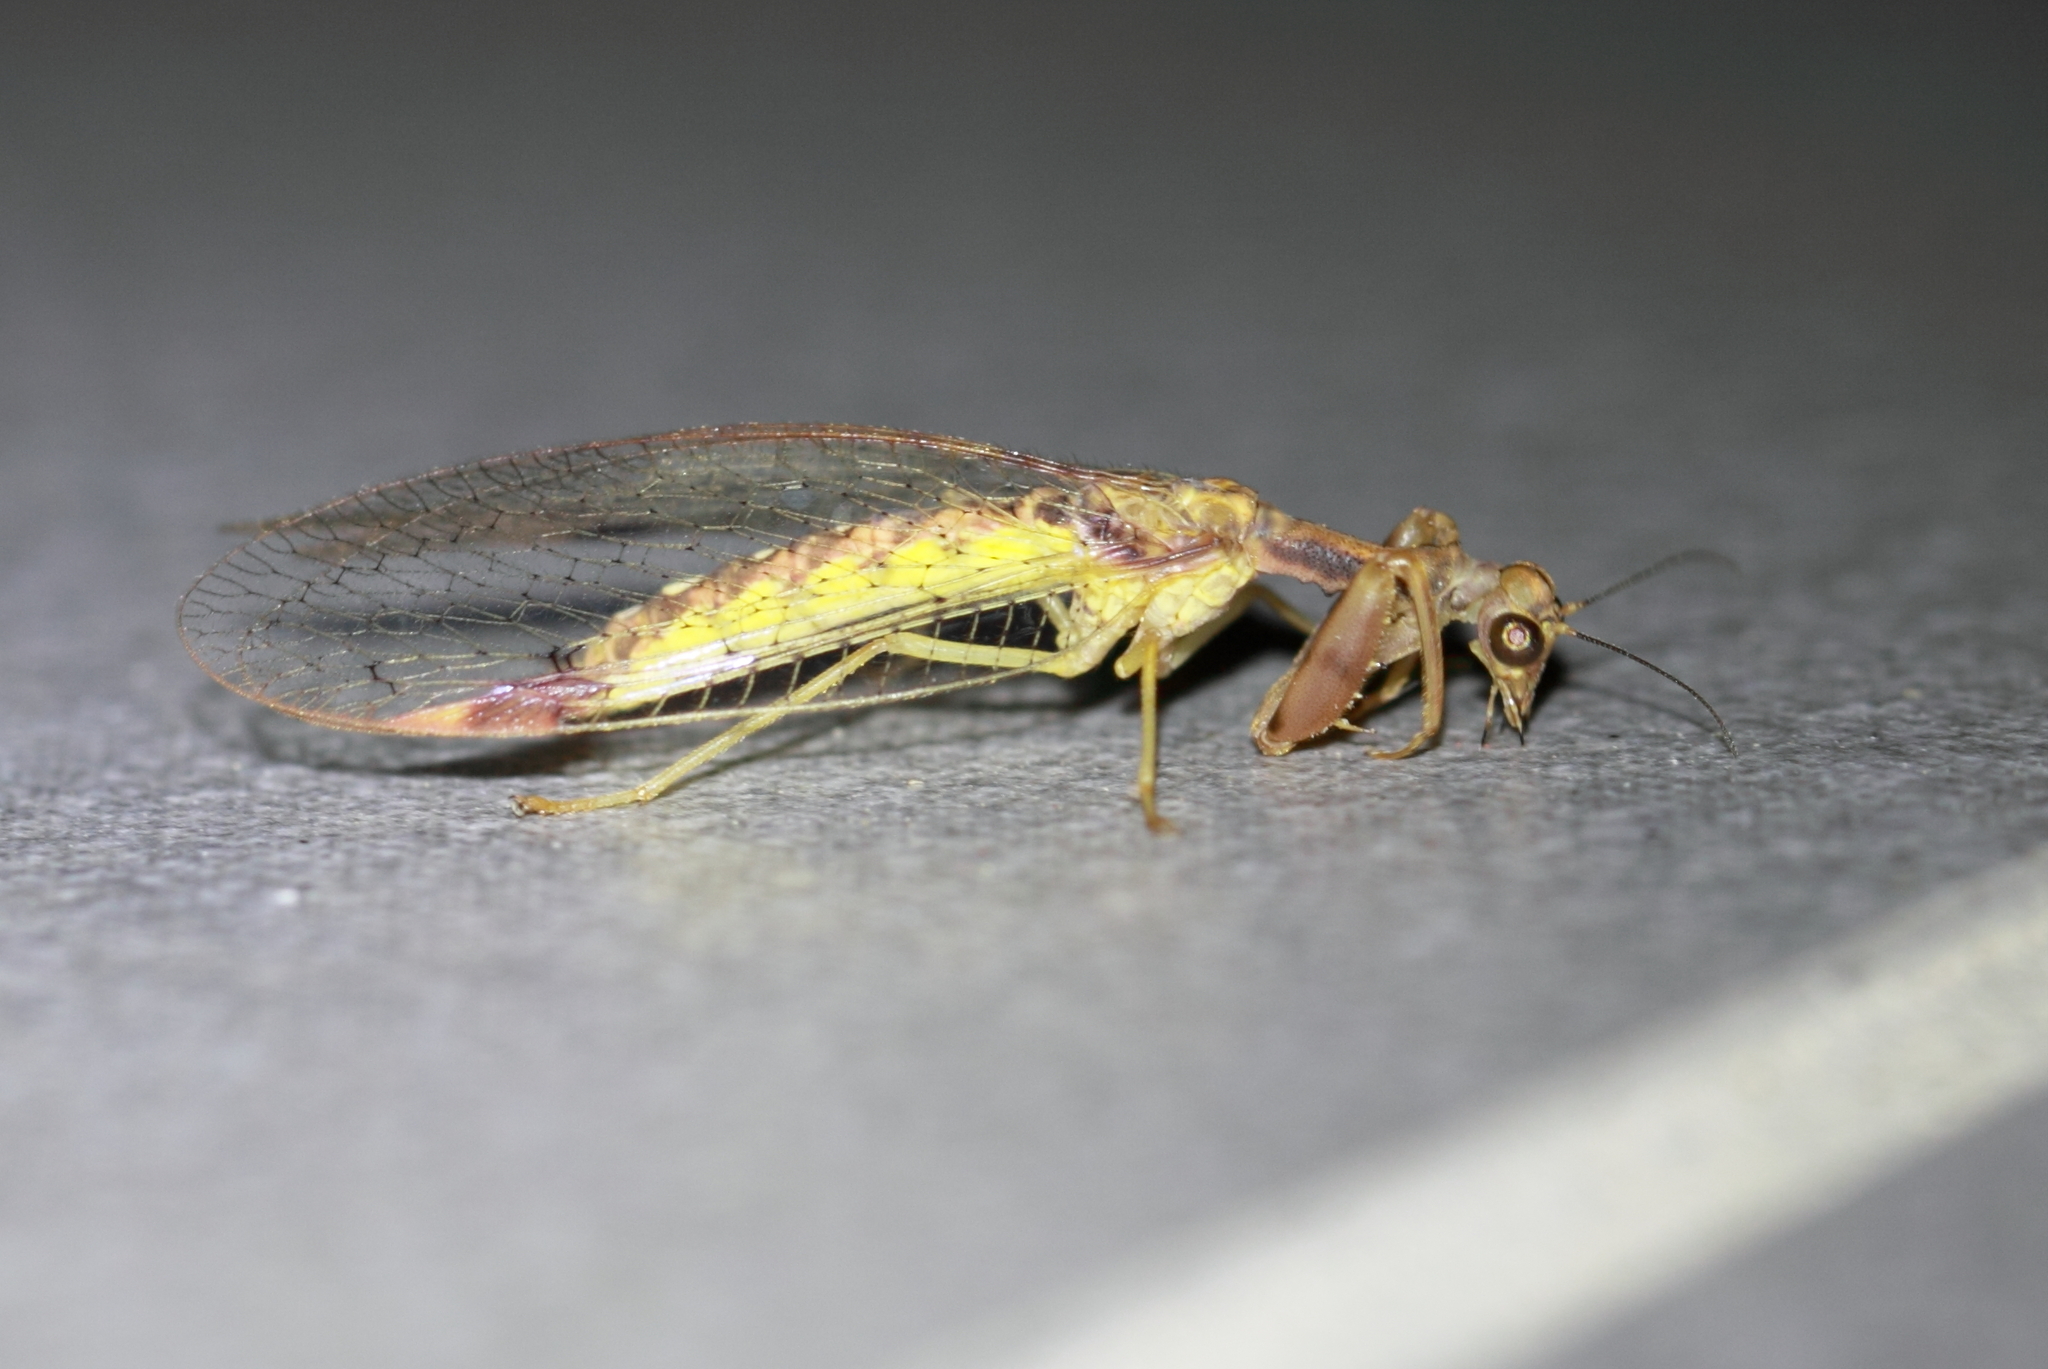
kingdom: Animalia
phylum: Arthropoda
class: Insecta
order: Neuroptera
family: Mantispidae
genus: Ditaxis
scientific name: Ditaxis biseriata
